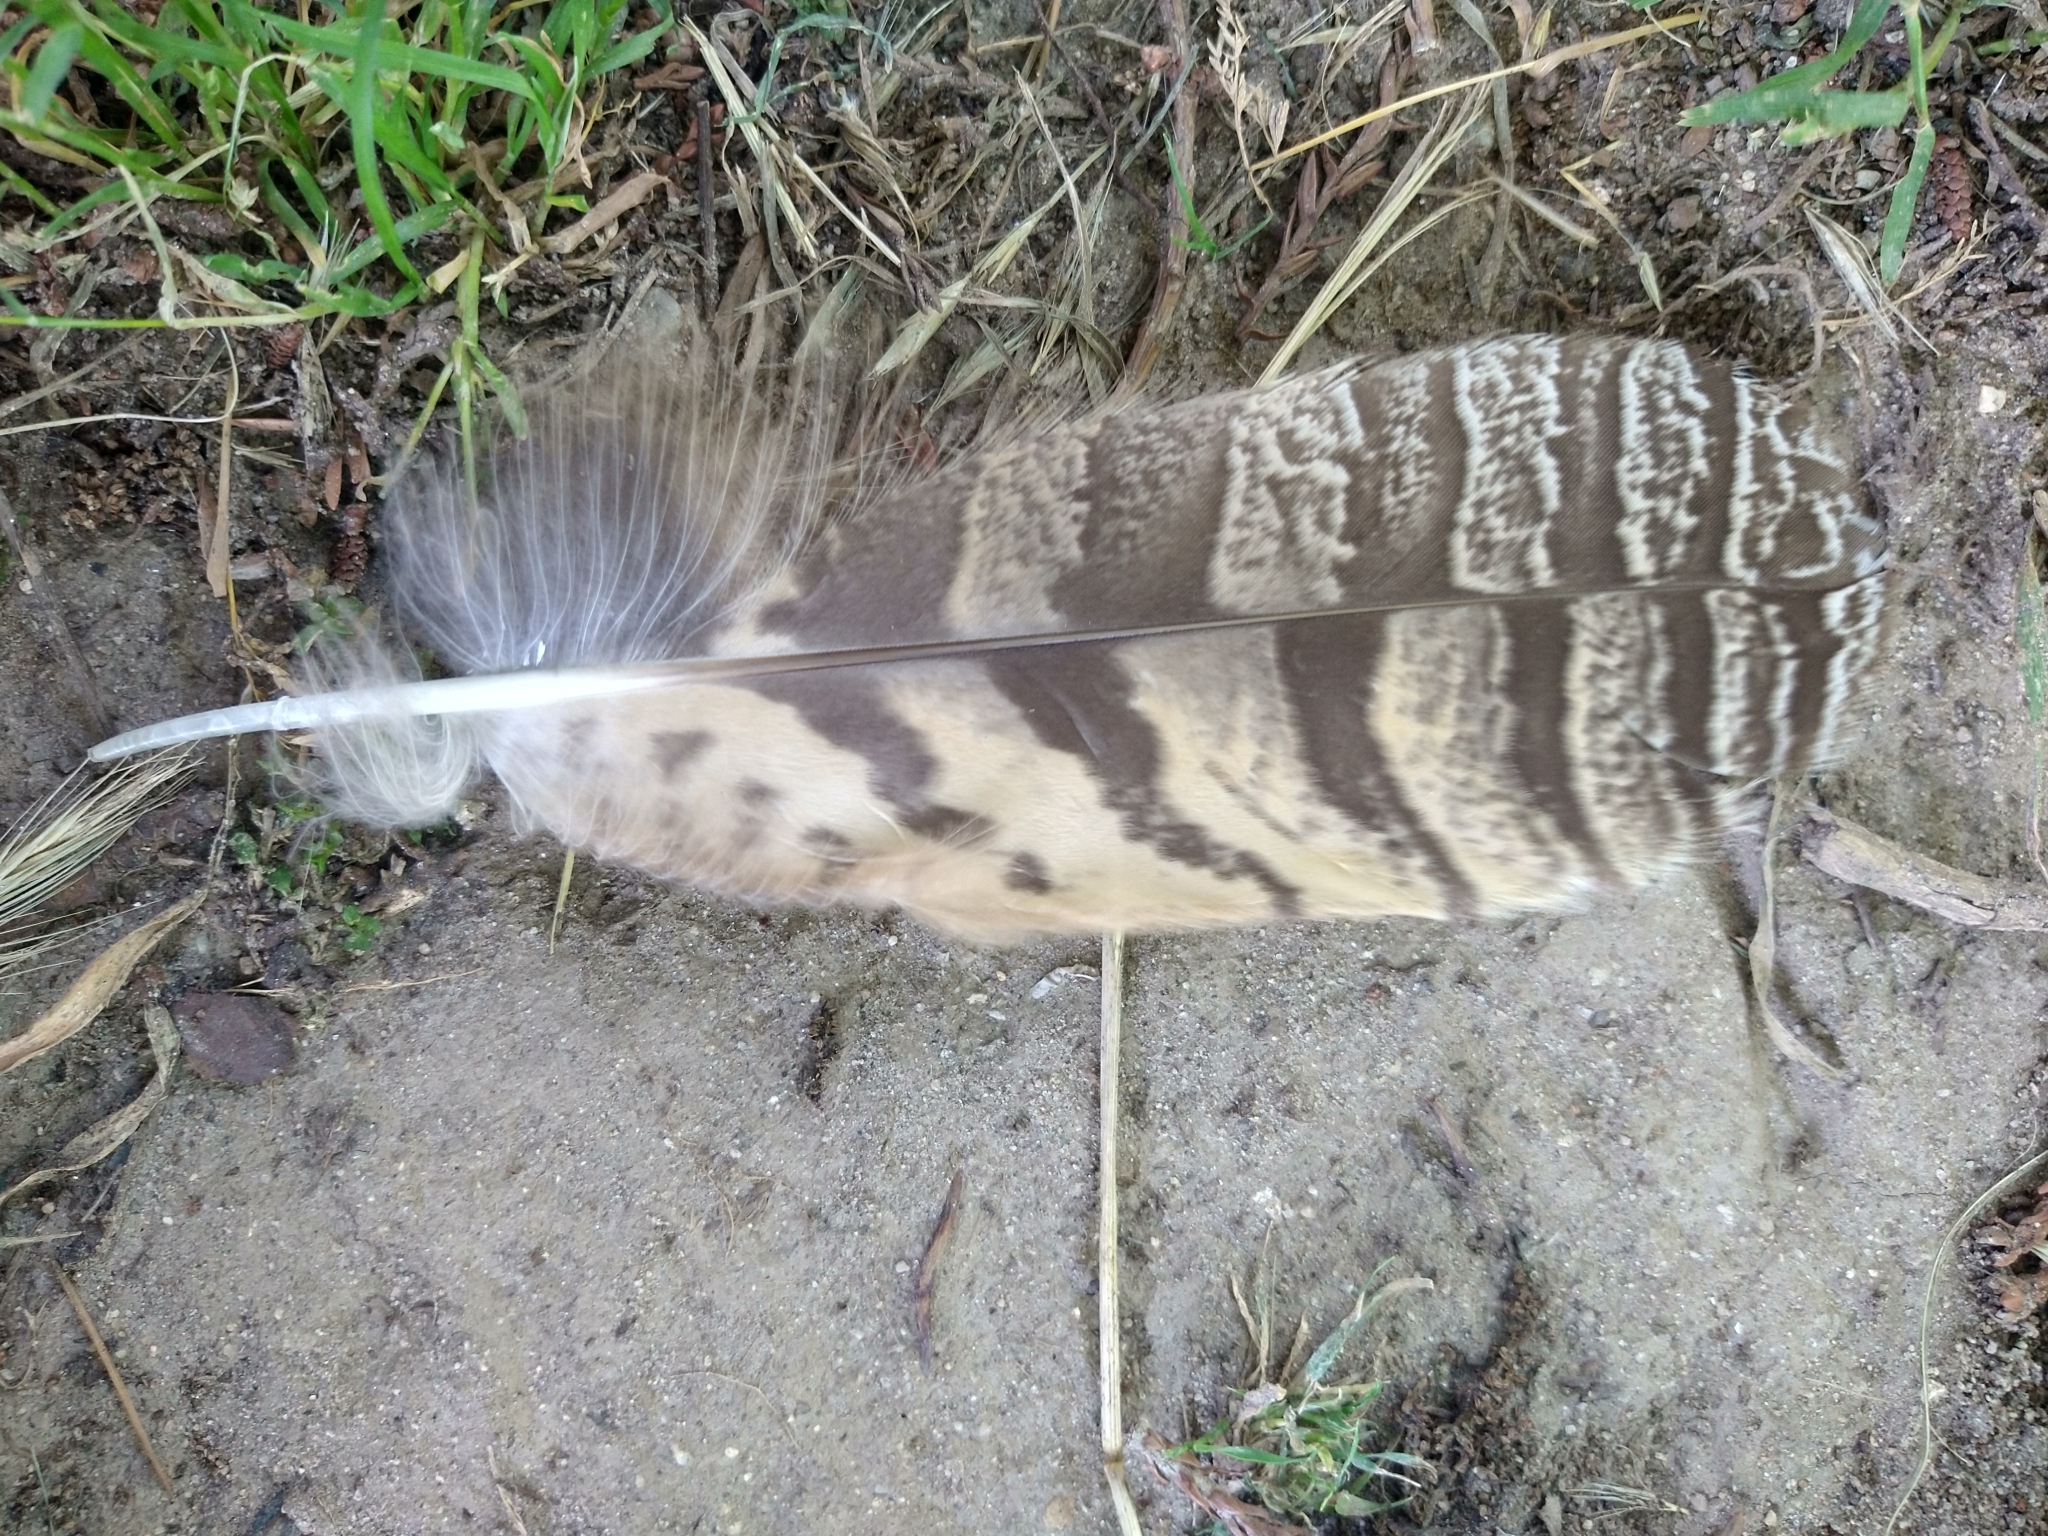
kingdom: Animalia
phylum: Chordata
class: Aves
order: Strigiformes
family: Strigidae
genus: Bubo
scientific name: Bubo virginianus
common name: Great horned owl
